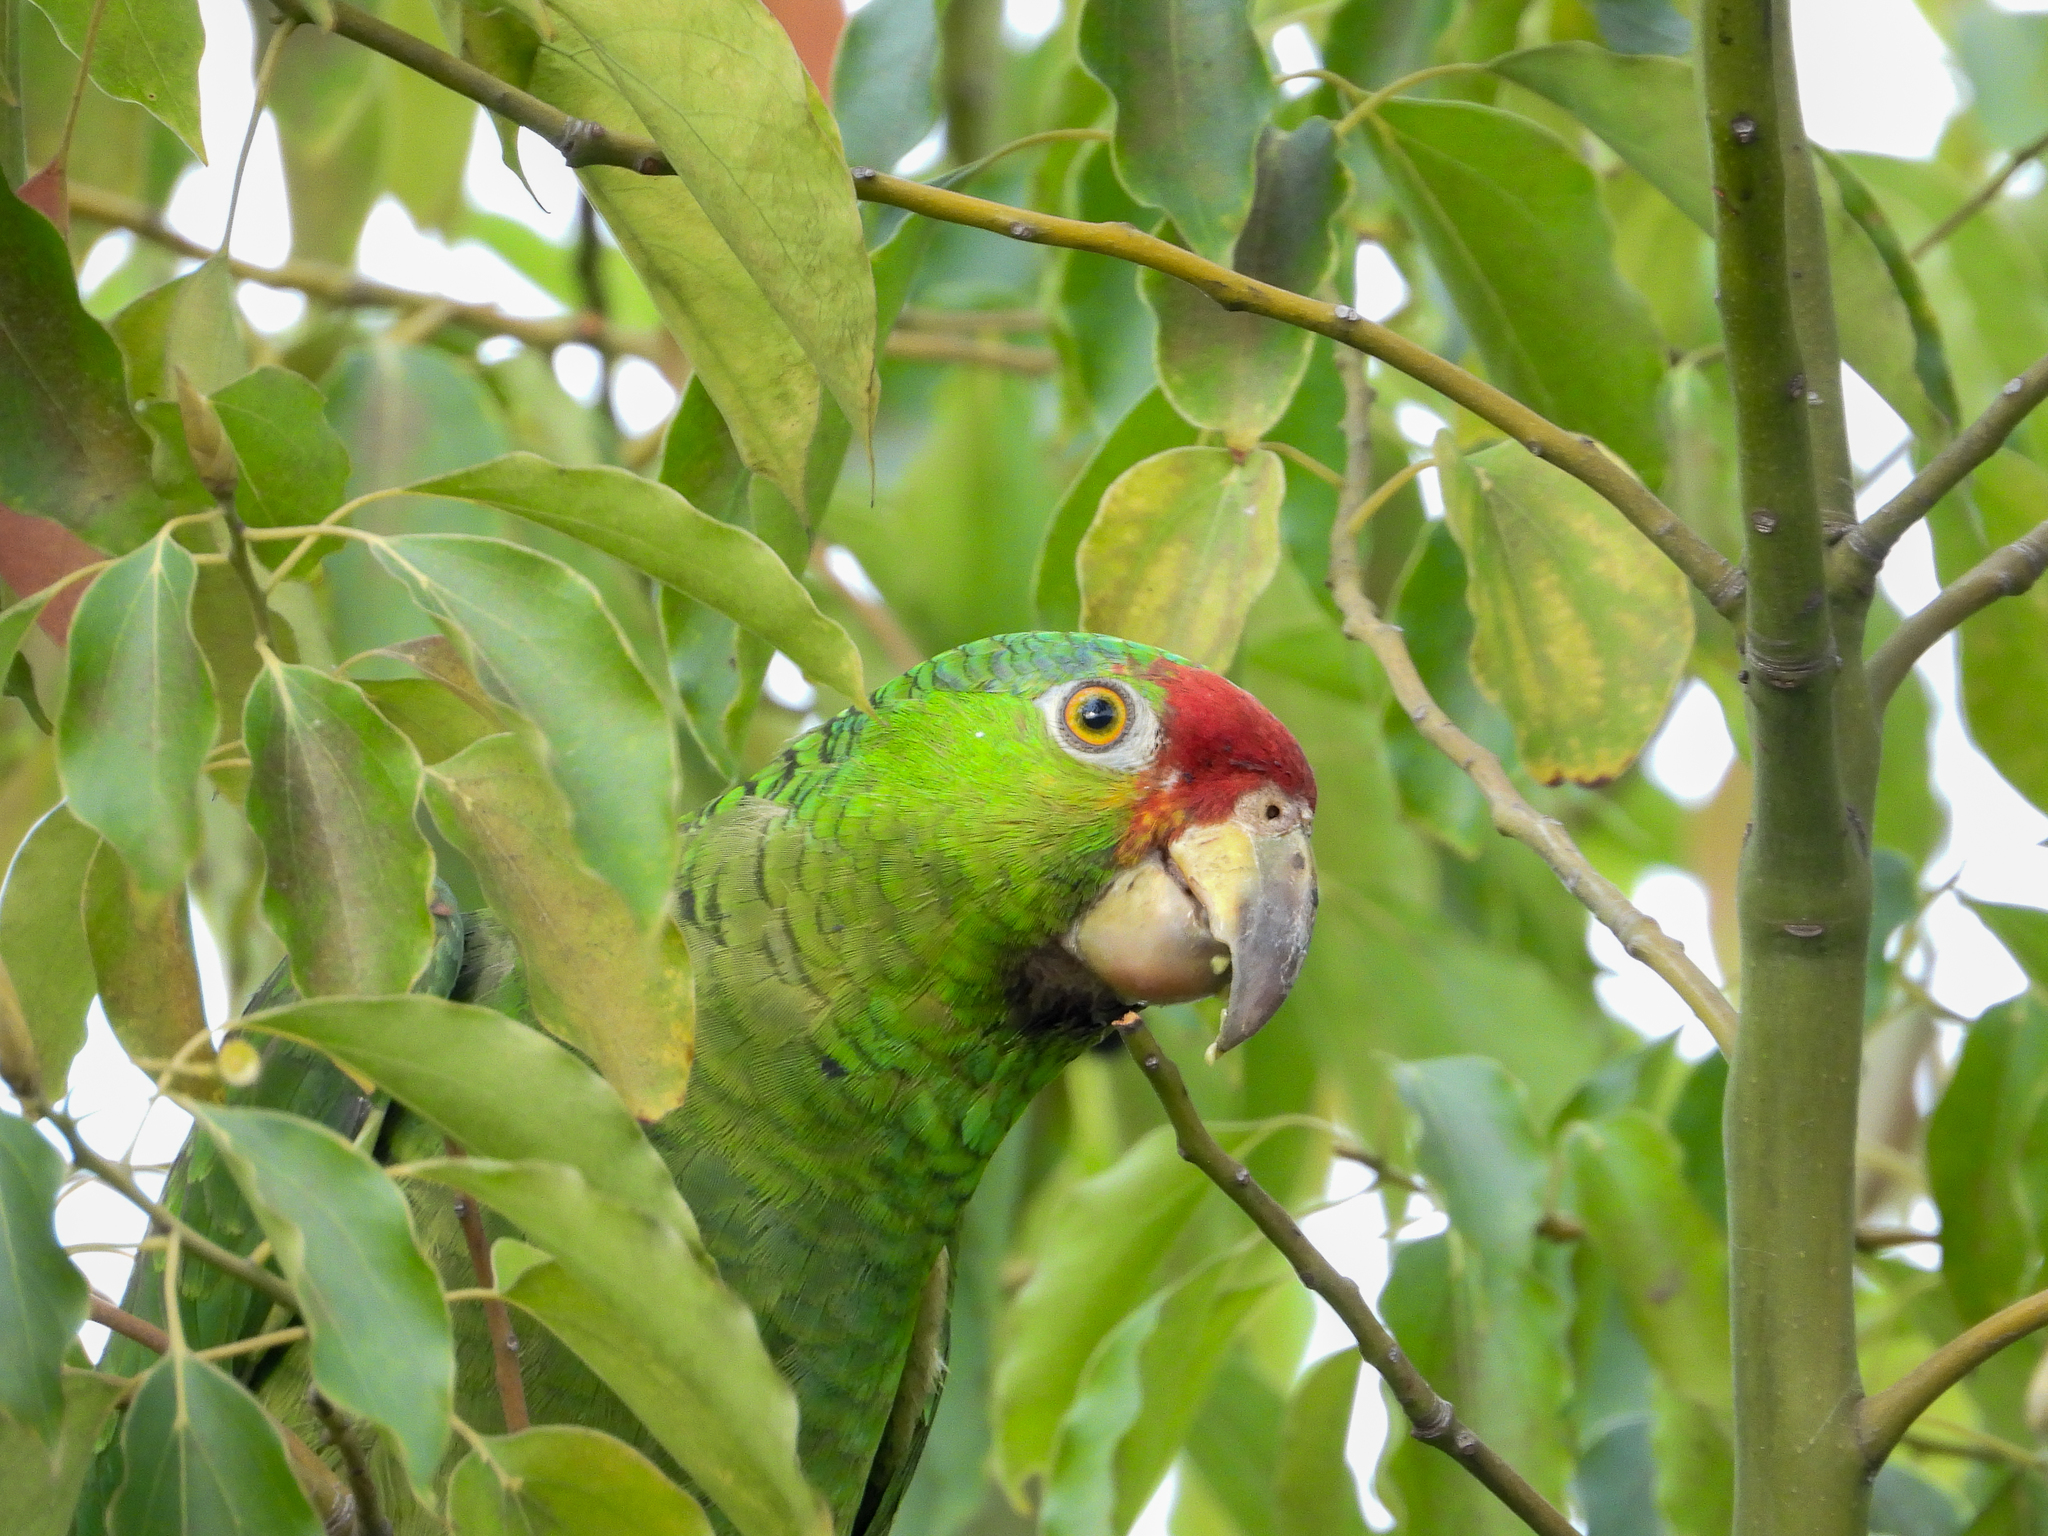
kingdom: Animalia
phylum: Chordata
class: Aves
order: Psittaciformes
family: Psittacidae
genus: Amazona
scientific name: Amazona
